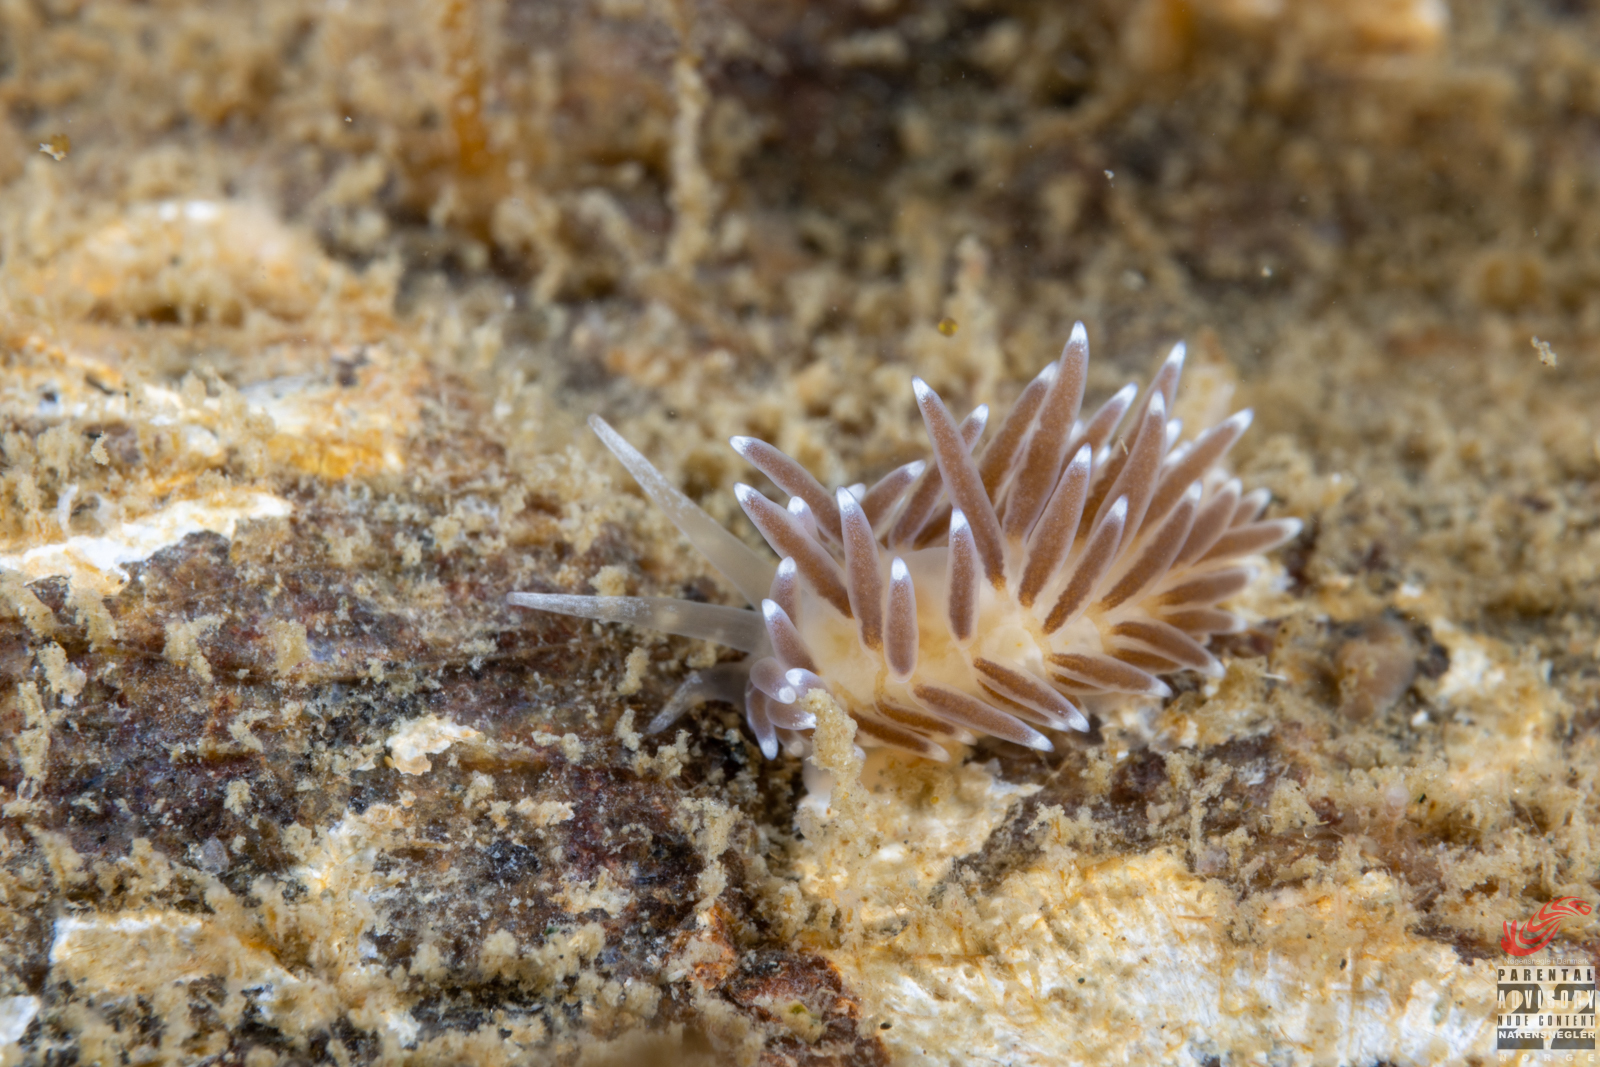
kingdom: Animalia
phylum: Mollusca
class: Gastropoda
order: Nudibranchia
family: Cuthonellidae
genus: Cuthonella
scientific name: Cuthonella concinna
